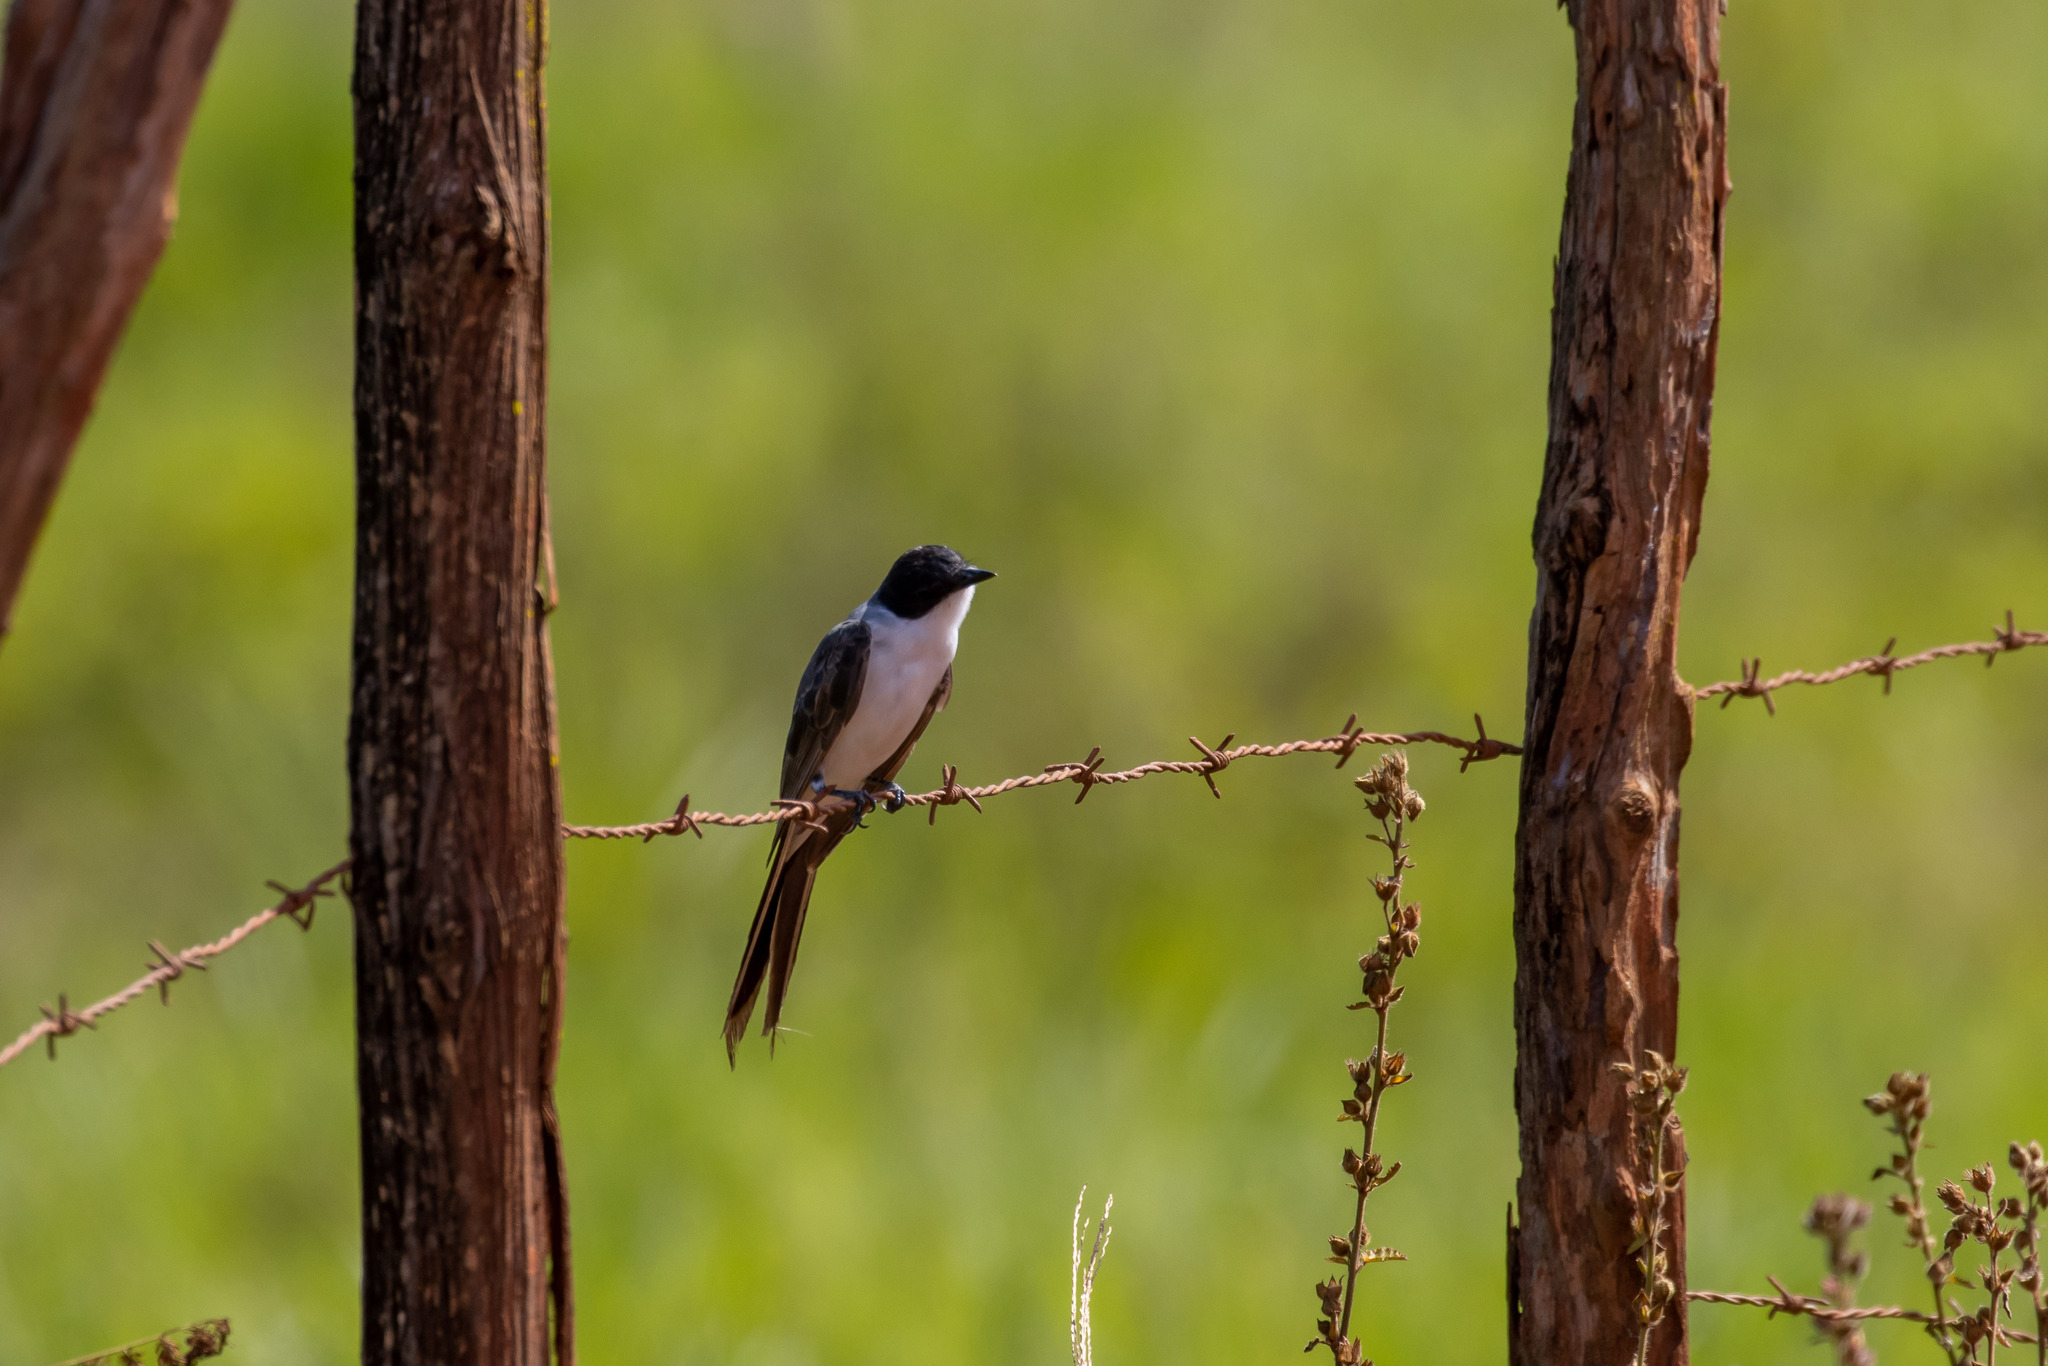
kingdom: Animalia
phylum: Chordata
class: Aves
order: Passeriformes
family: Tyrannidae
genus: Tyrannus
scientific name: Tyrannus savana
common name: Fork-tailed flycatcher
